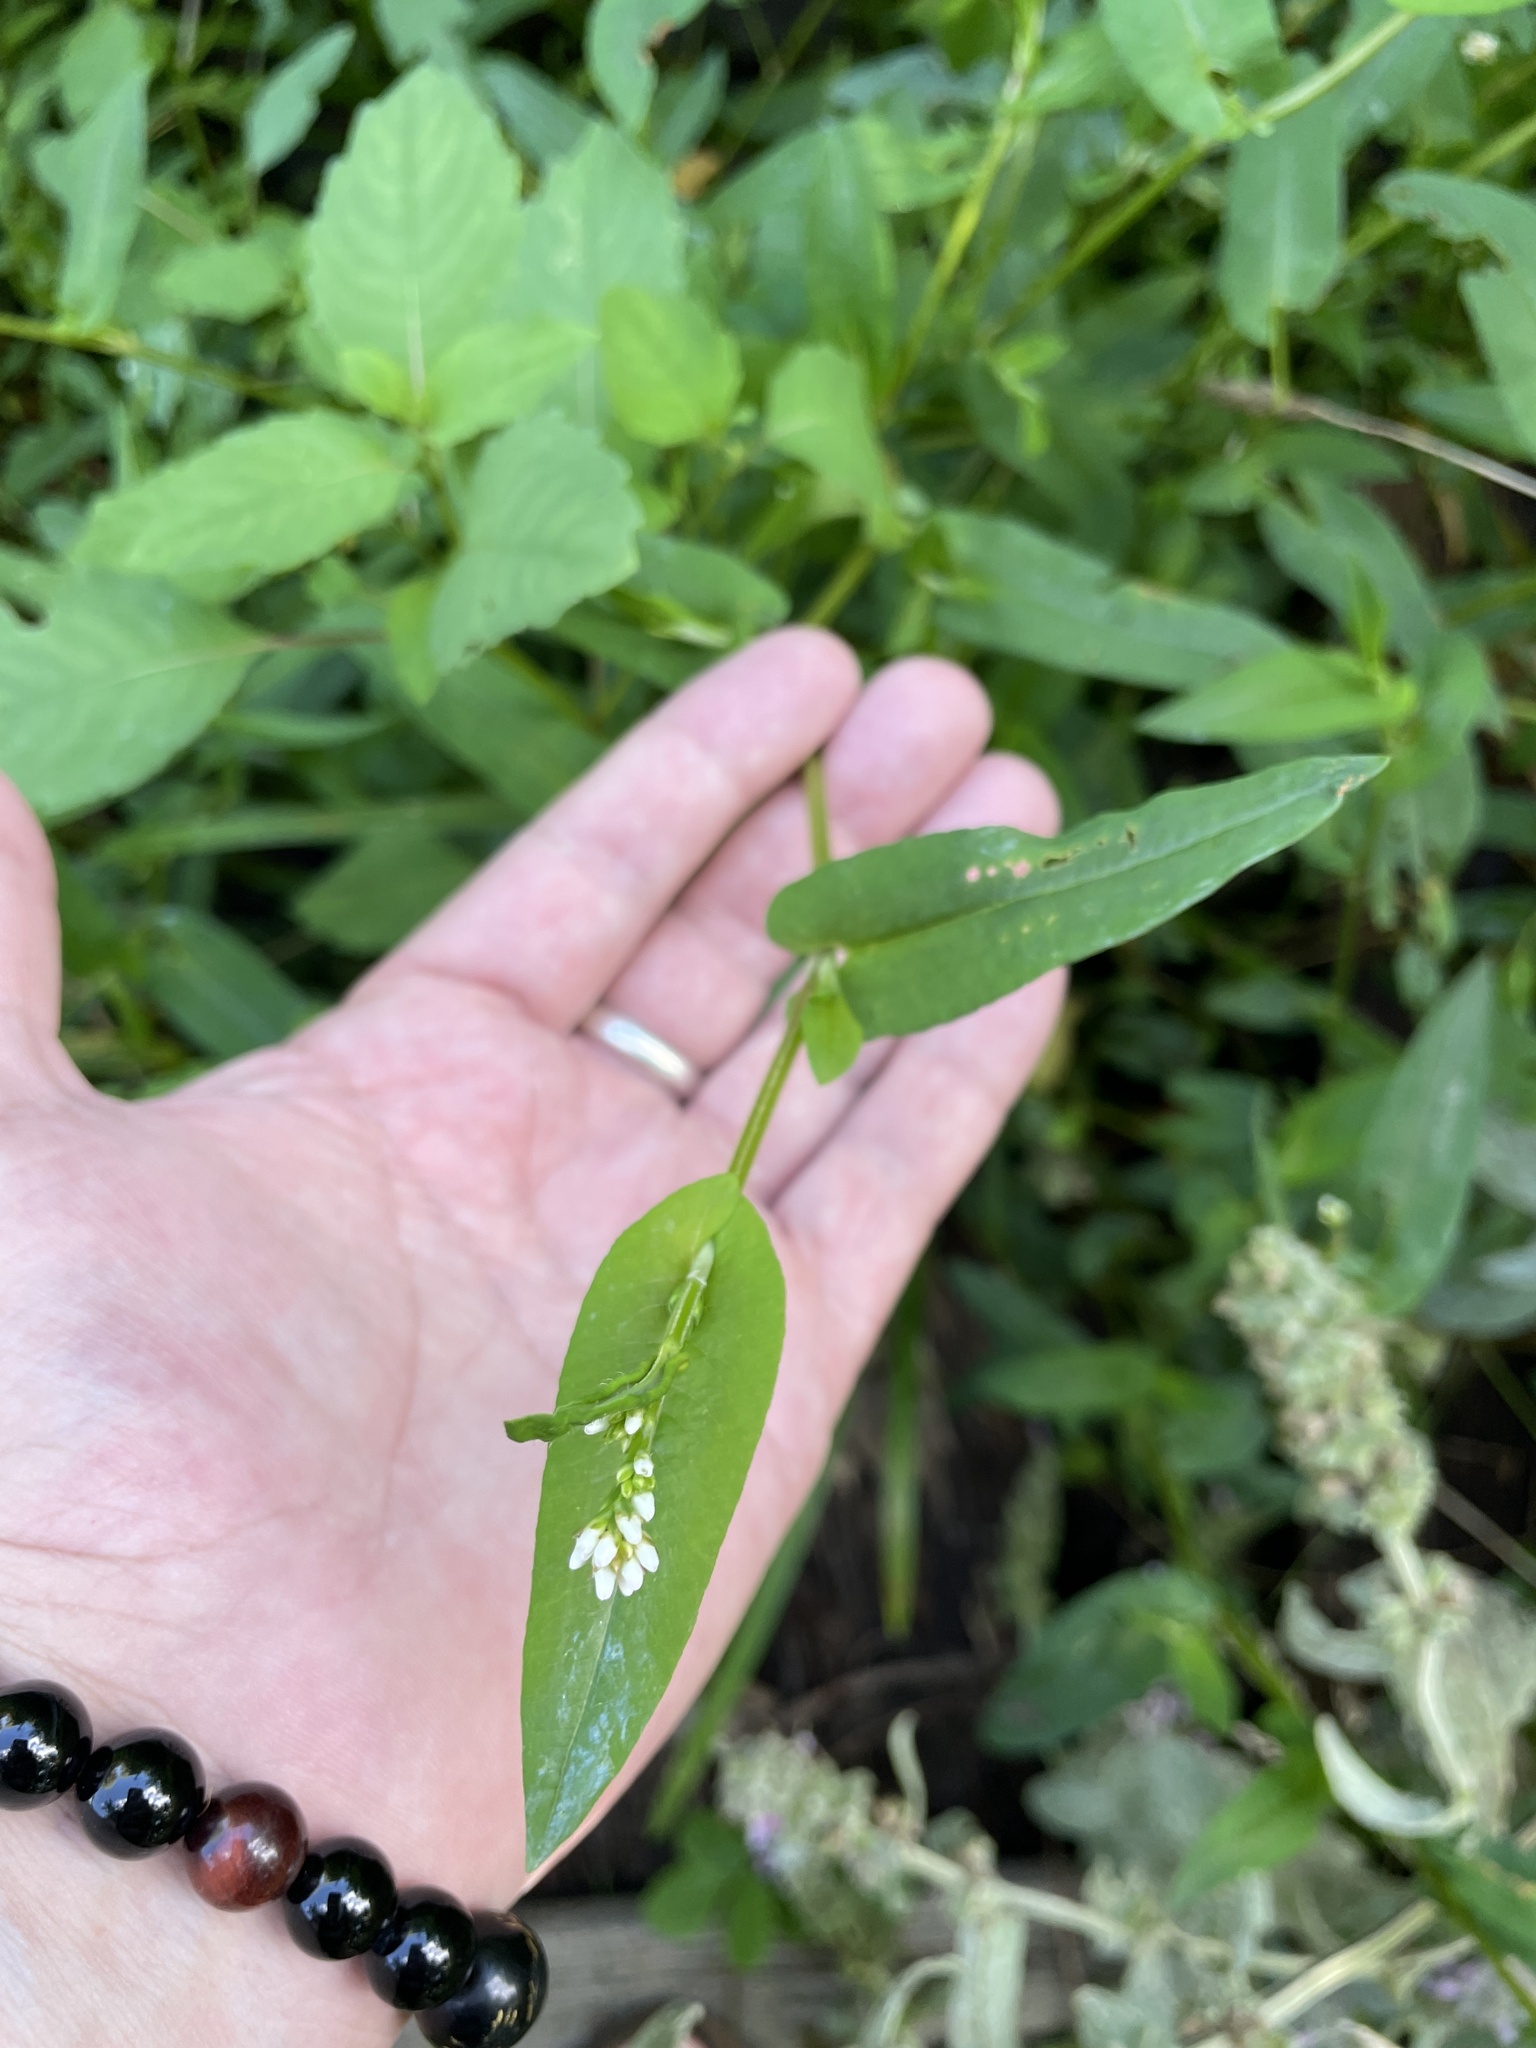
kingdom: Plantae
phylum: Tracheophyta
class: Magnoliopsida
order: Caryophyllales
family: Polygonaceae
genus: Persicaria
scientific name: Persicaria sagittata
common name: American tearthumb
